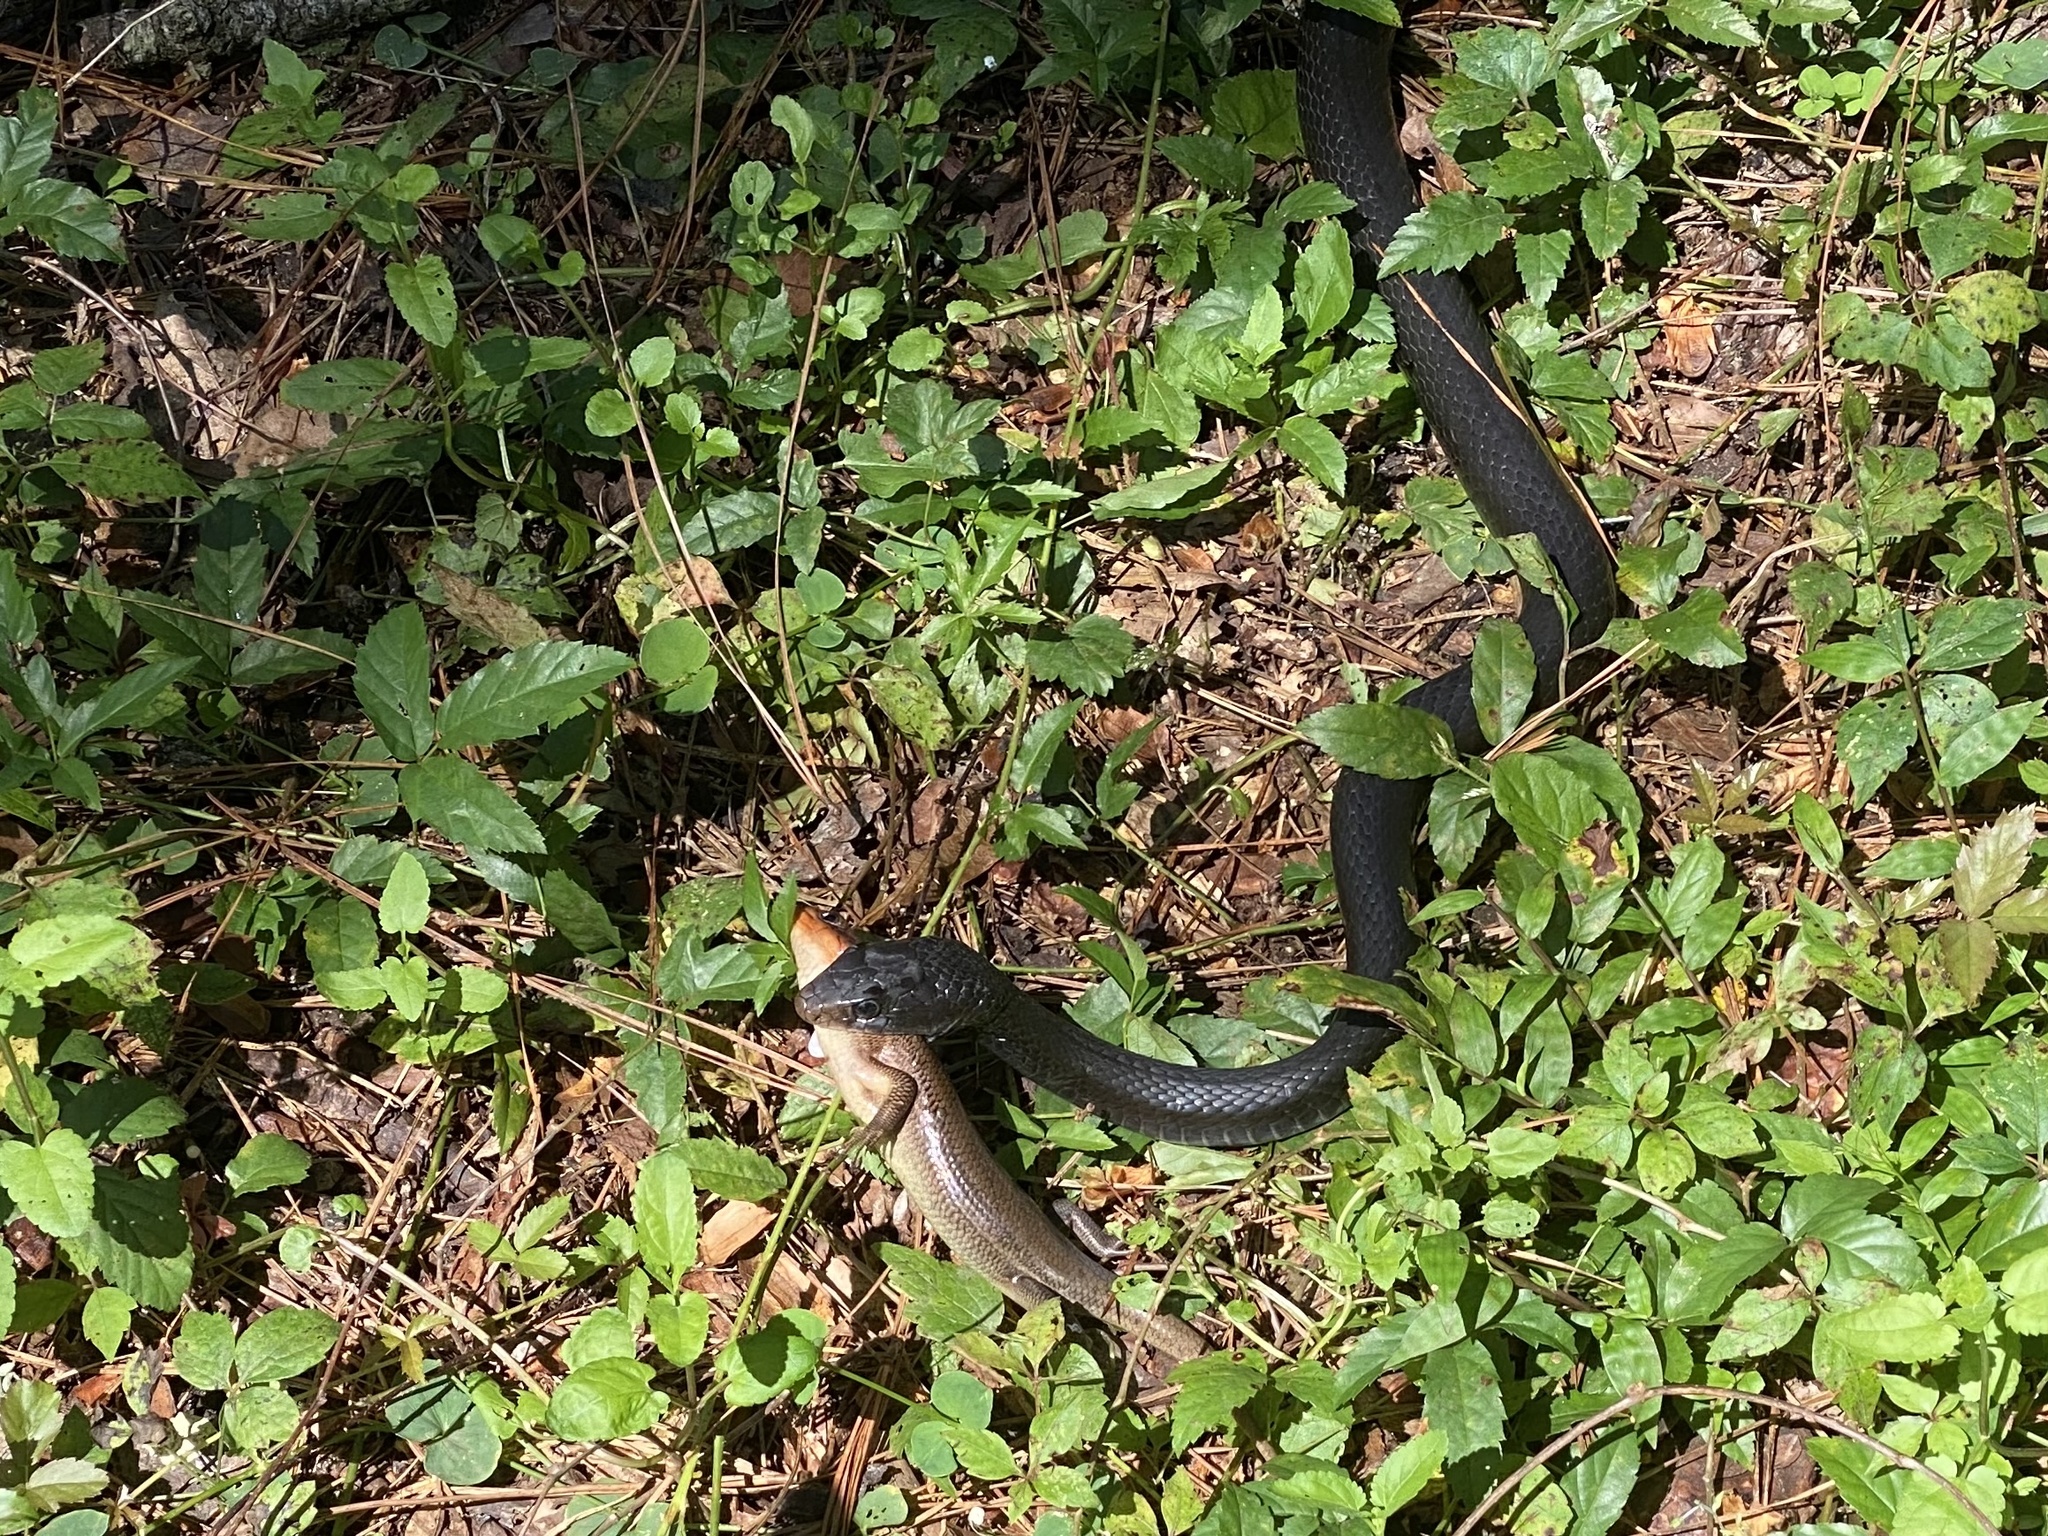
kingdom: Animalia
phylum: Chordata
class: Squamata
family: Colubridae
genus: Coluber
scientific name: Coluber constrictor
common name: Eastern racer
